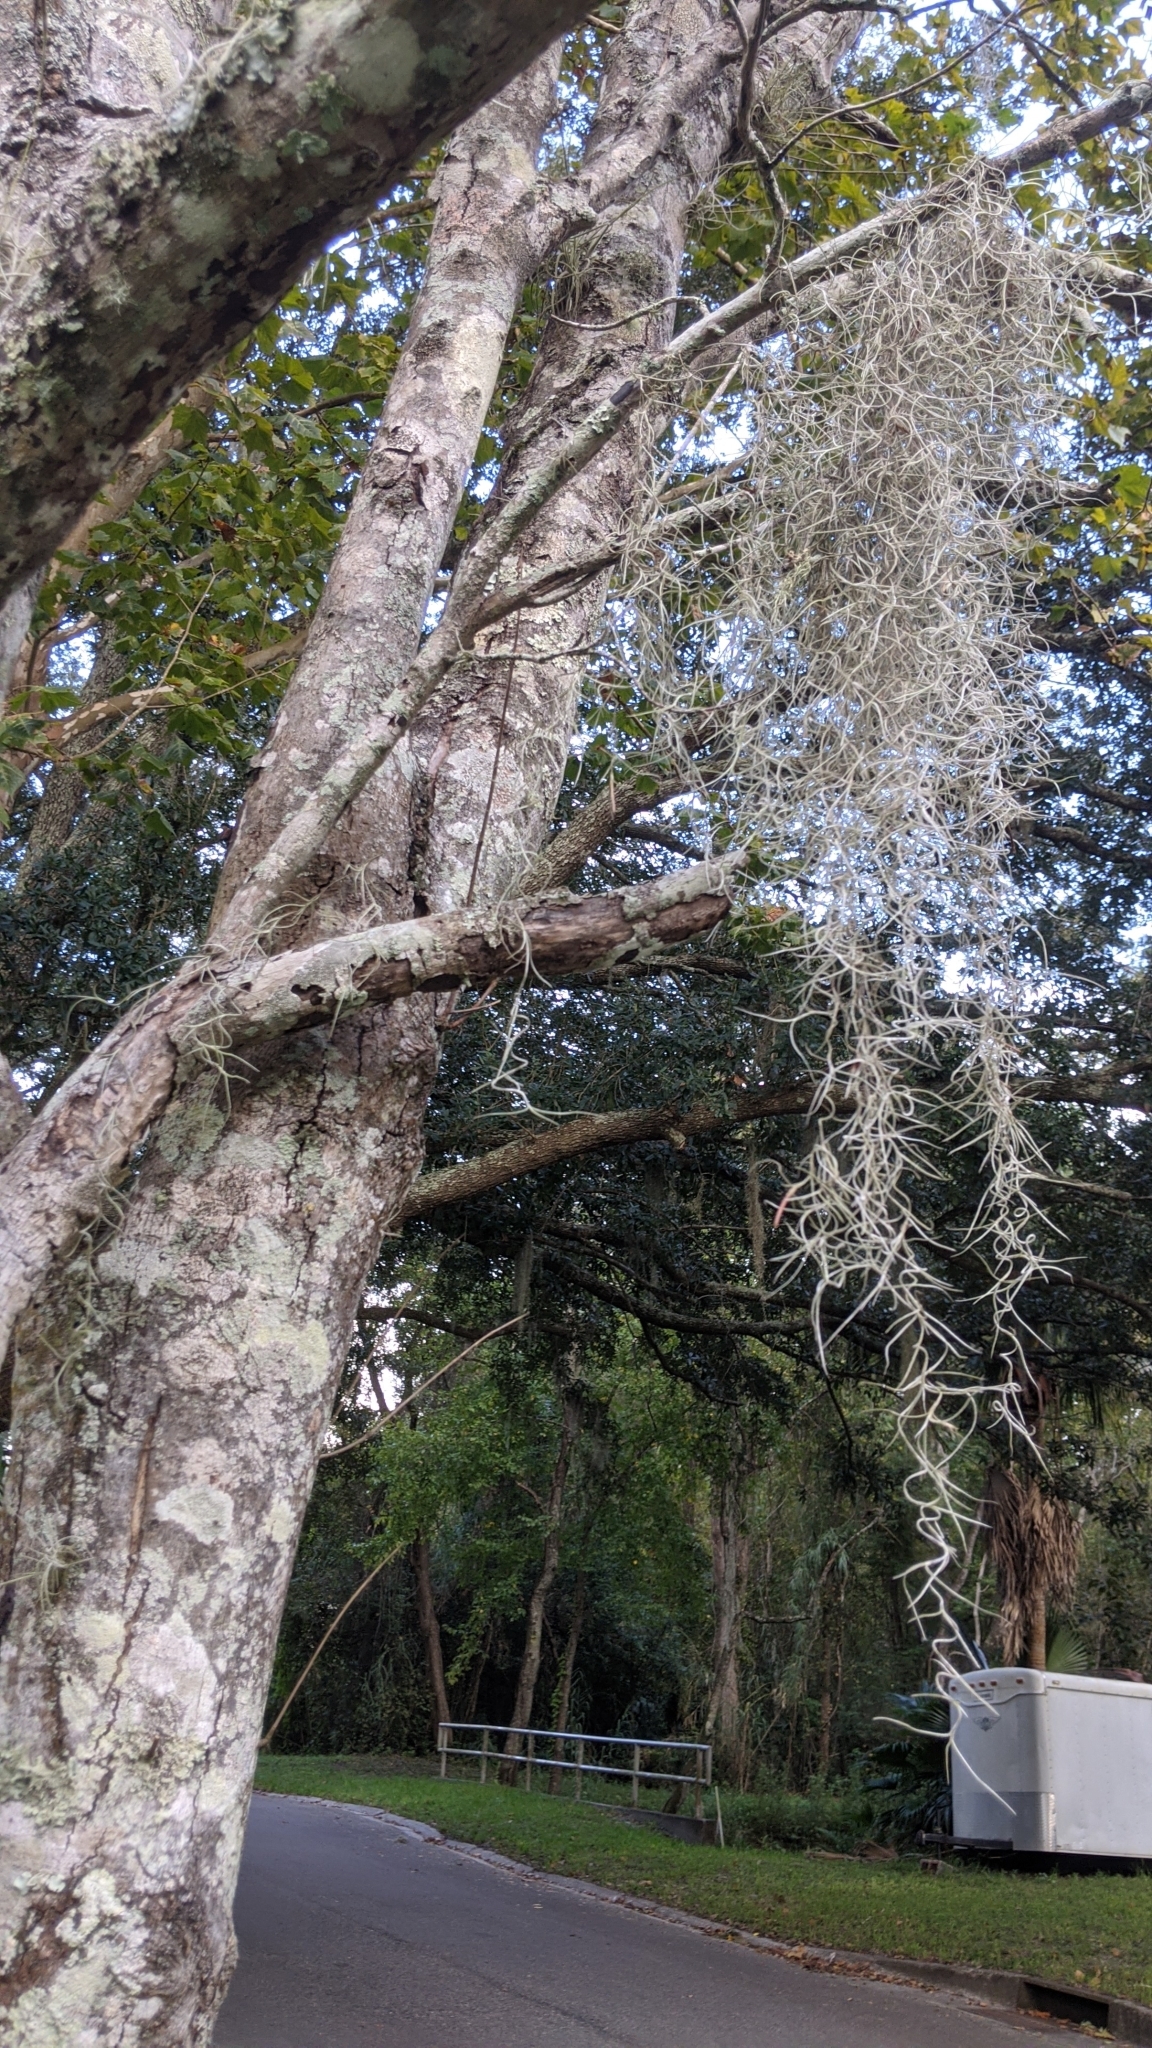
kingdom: Plantae
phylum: Tracheophyta
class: Liliopsida
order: Poales
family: Bromeliaceae
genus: Tillandsia
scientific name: Tillandsia usneoides
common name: Spanish moss
